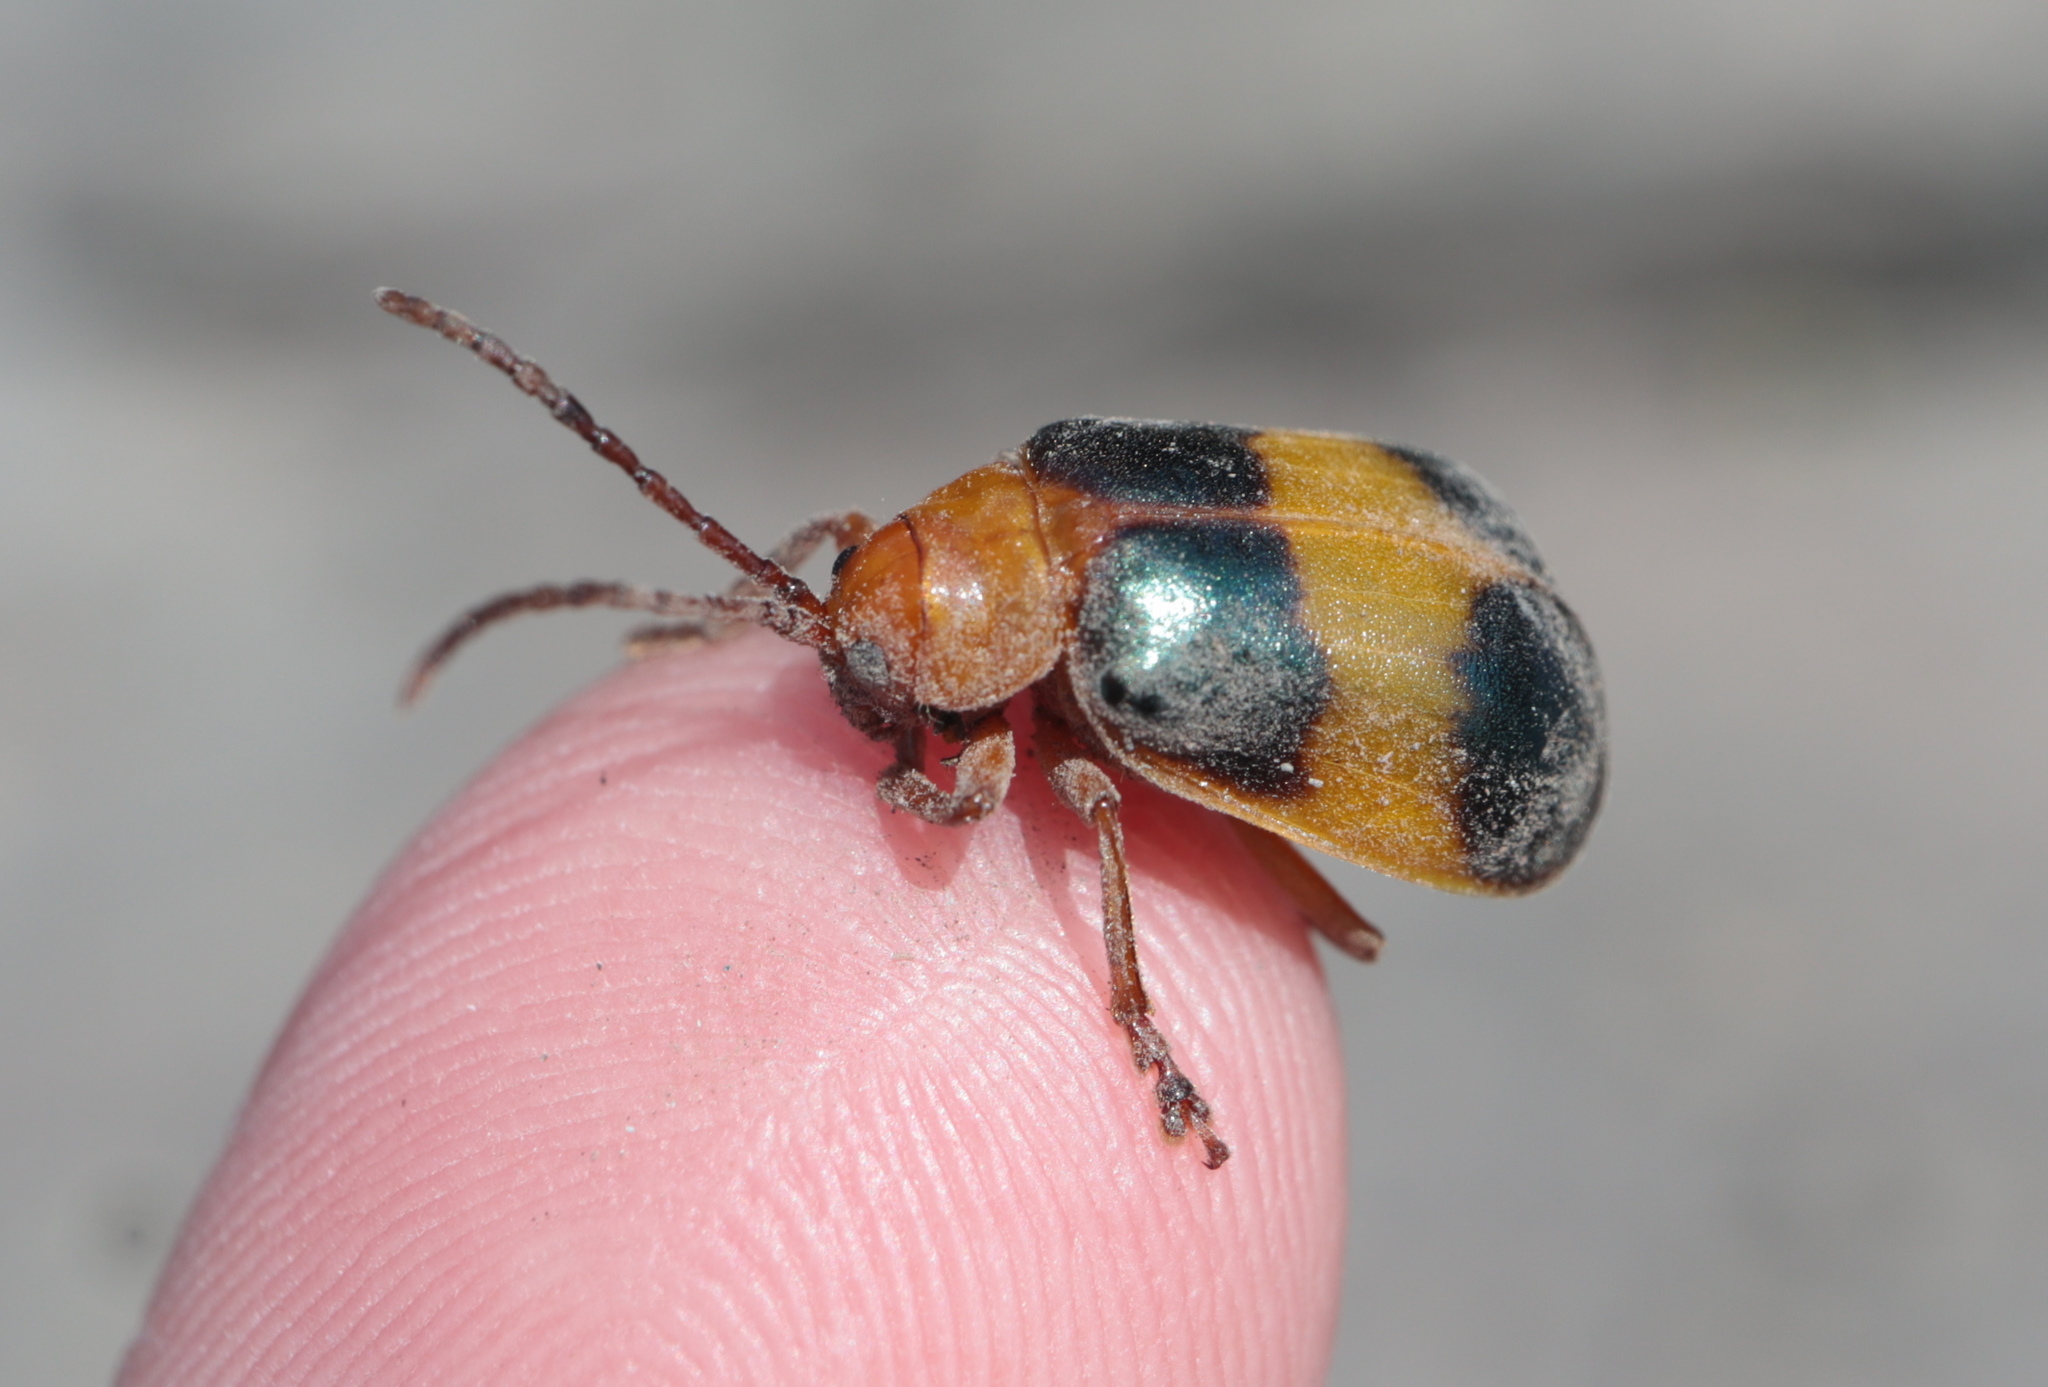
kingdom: Animalia
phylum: Arthropoda
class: Insecta
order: Coleoptera
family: Chrysomelidae
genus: Monocesta
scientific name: Monocesta coryli
